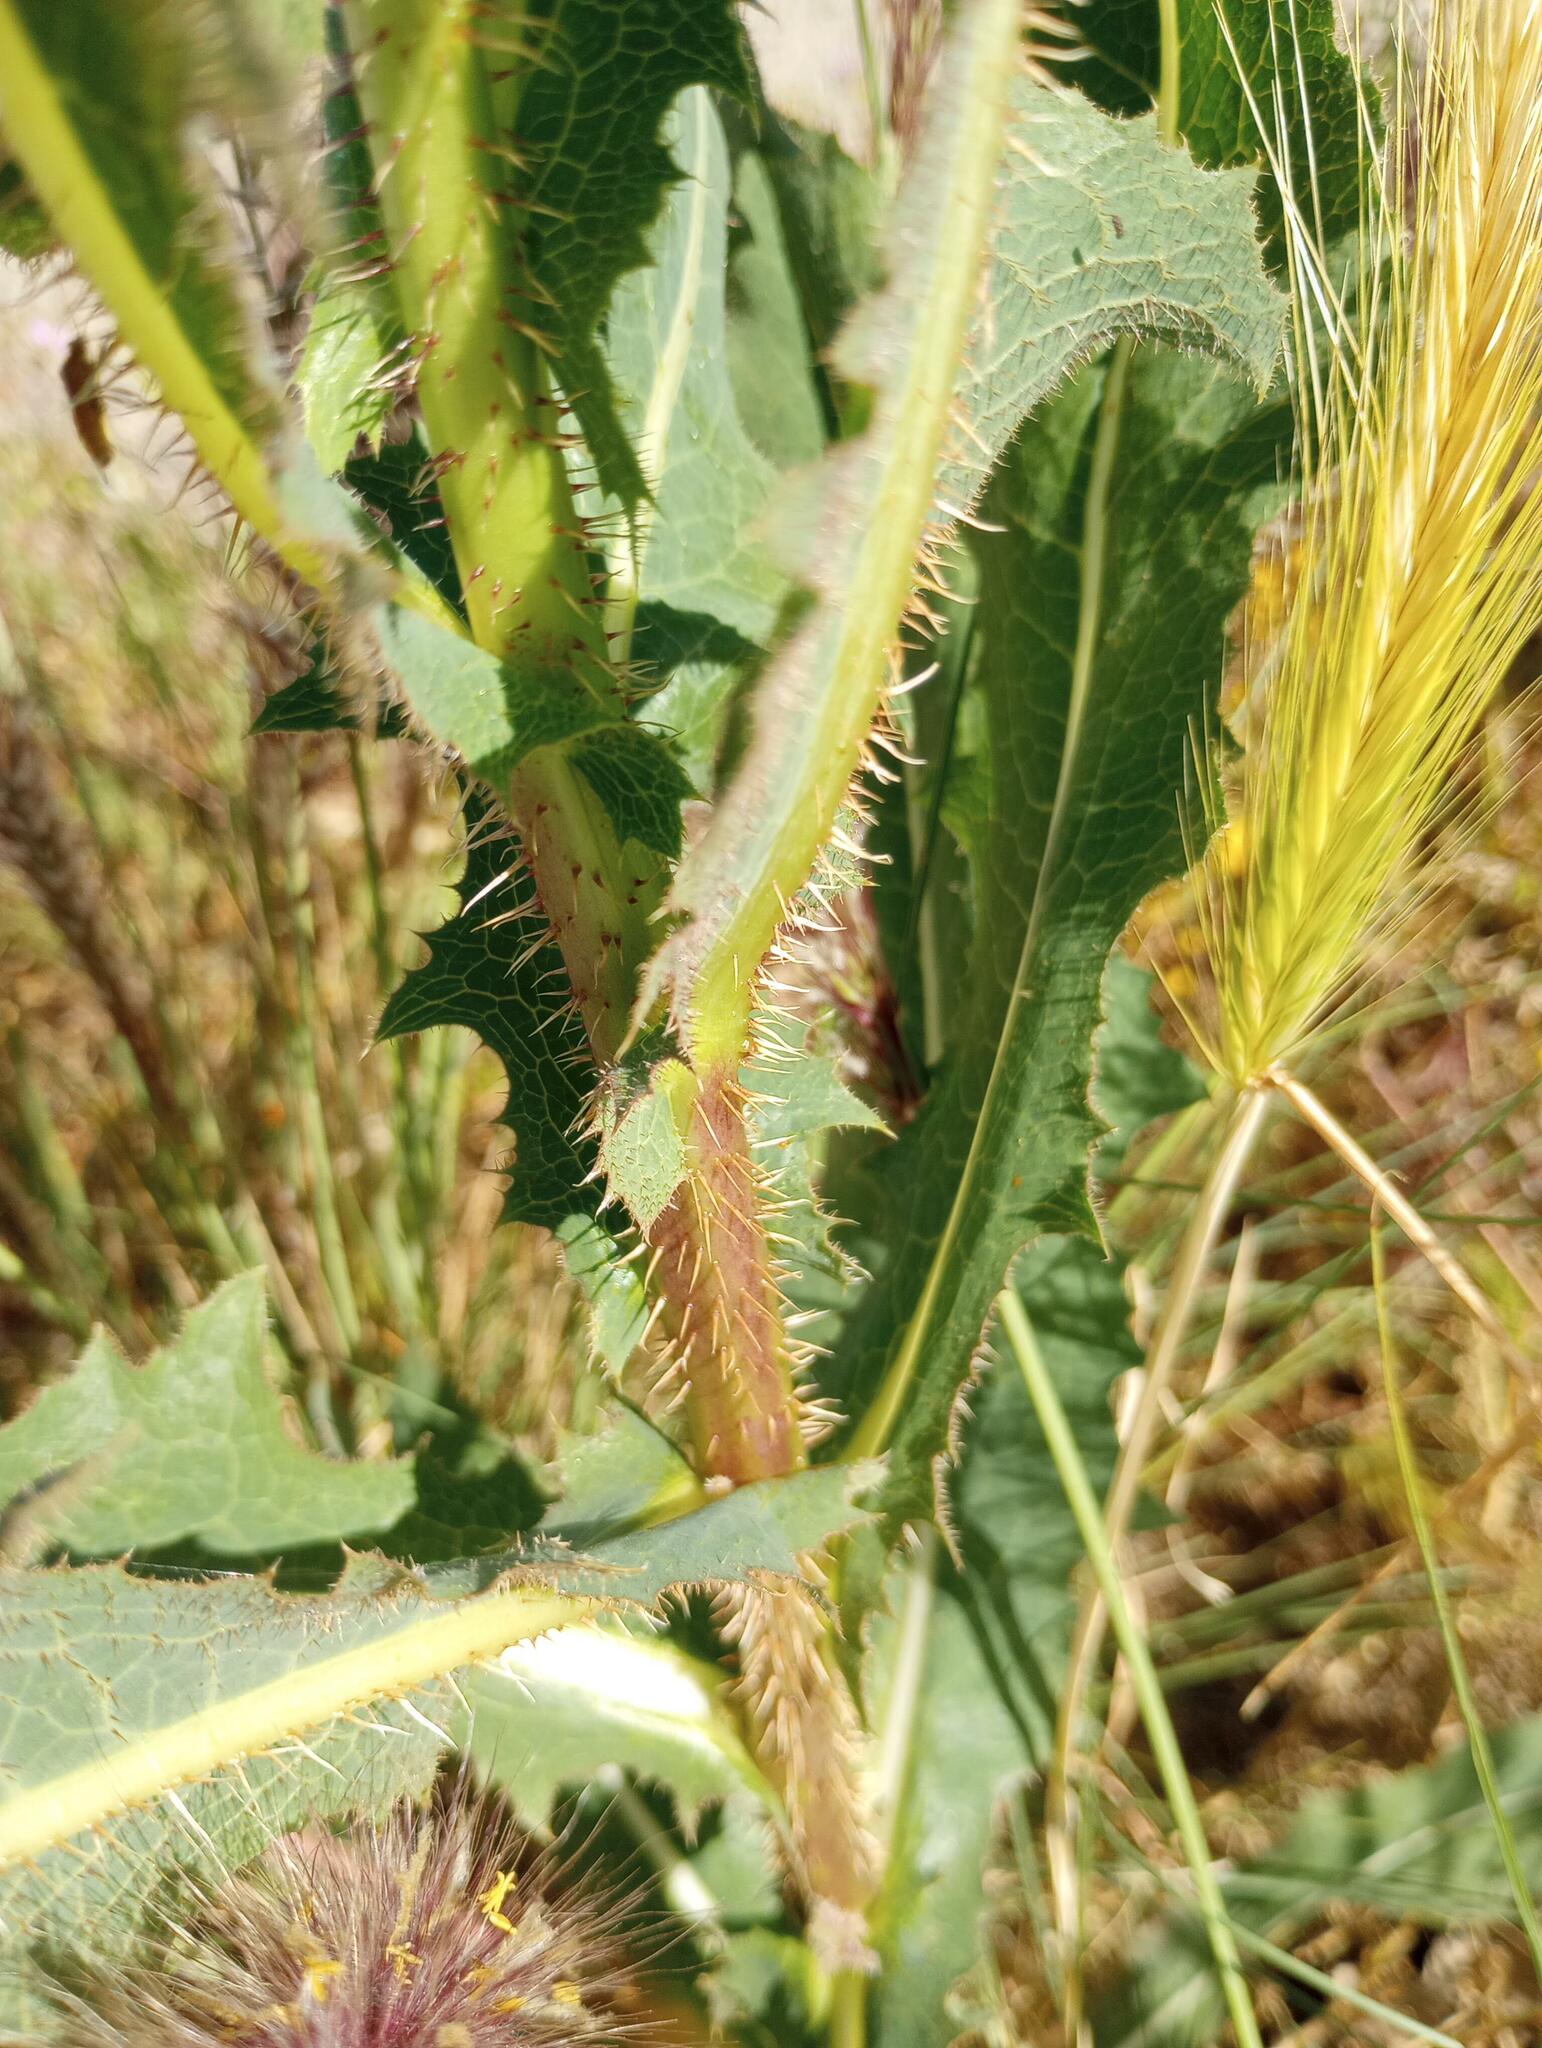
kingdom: Plantae
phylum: Tracheophyta
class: Magnoliopsida
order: Asterales
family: Asteraceae
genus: Lactuca
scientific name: Lactuca serriola
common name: Prickly lettuce
